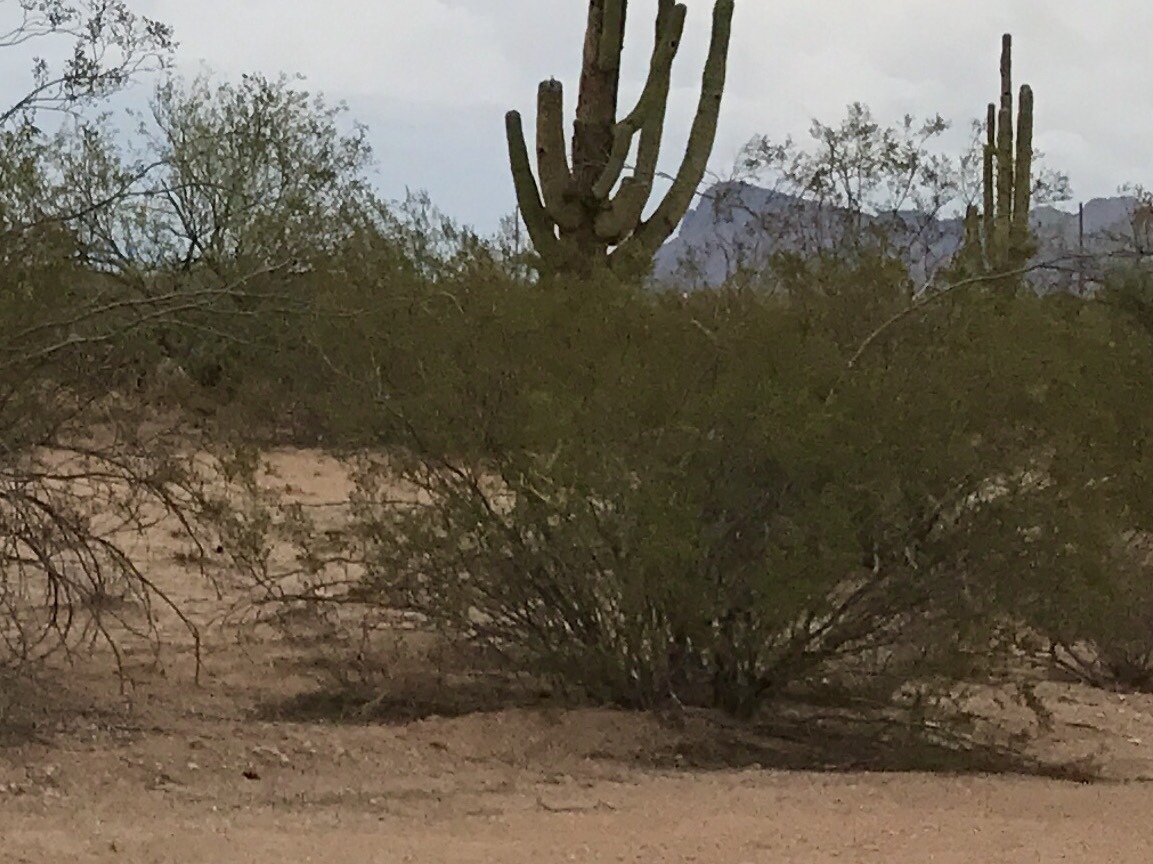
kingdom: Plantae
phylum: Tracheophyta
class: Magnoliopsida
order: Zygophyllales
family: Zygophyllaceae
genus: Larrea
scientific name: Larrea tridentata
